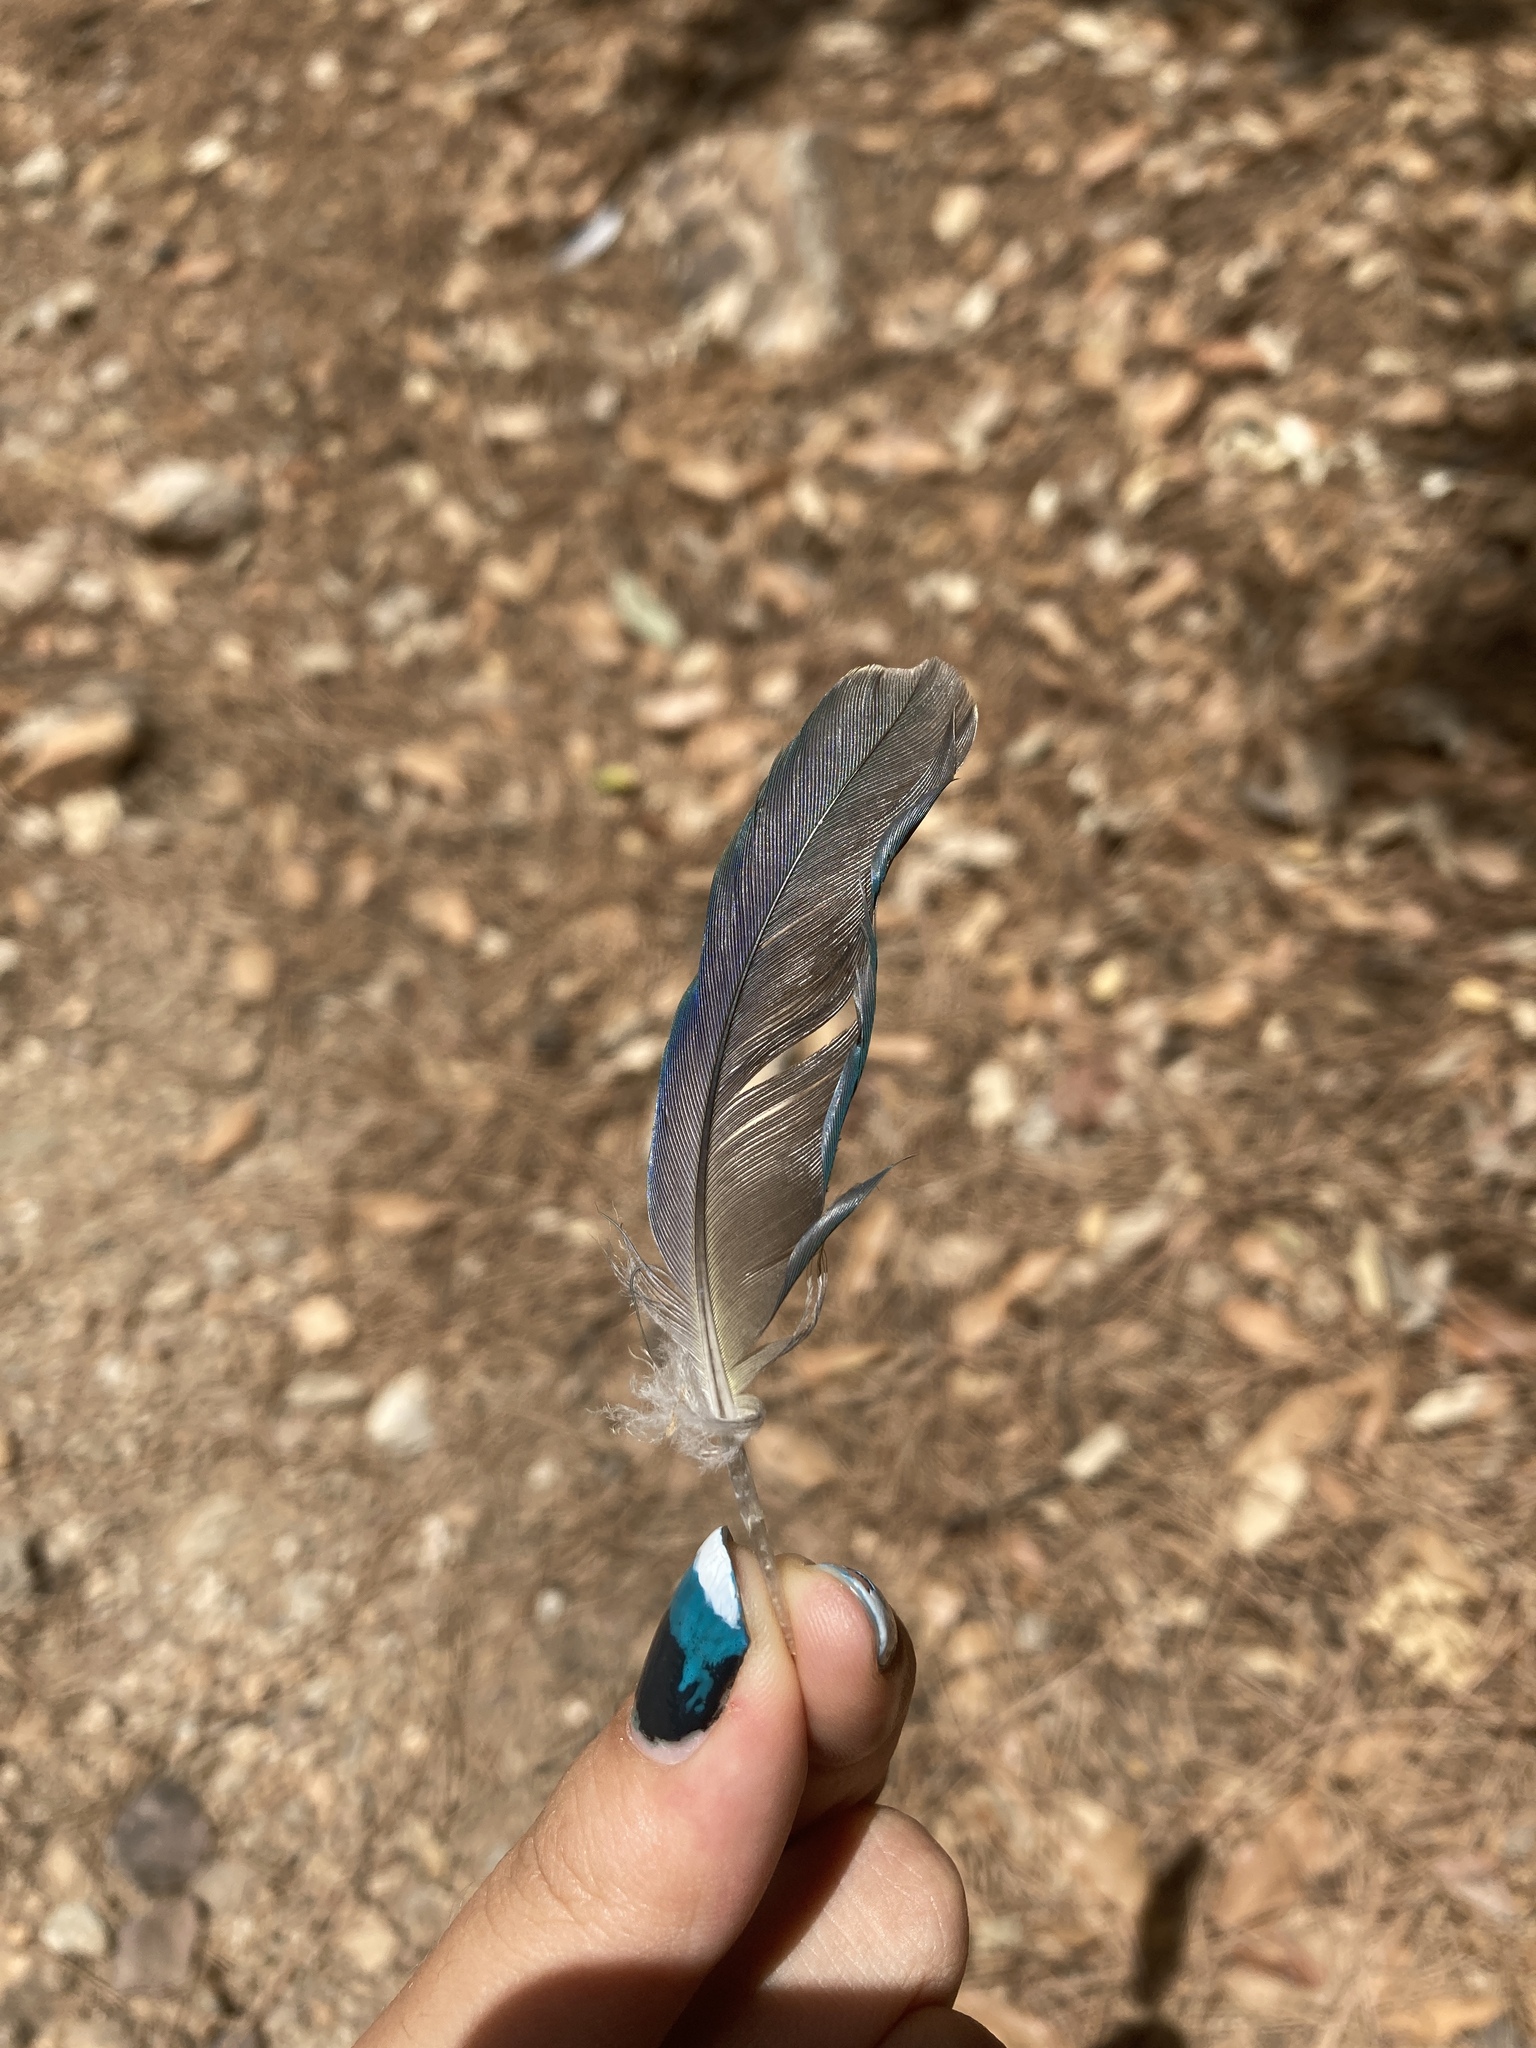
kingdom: Animalia
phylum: Chordata
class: Aves
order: Psittaciformes
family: Psittacidae
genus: Myiopsitta
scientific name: Myiopsitta monachus
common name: Monk parakeet
